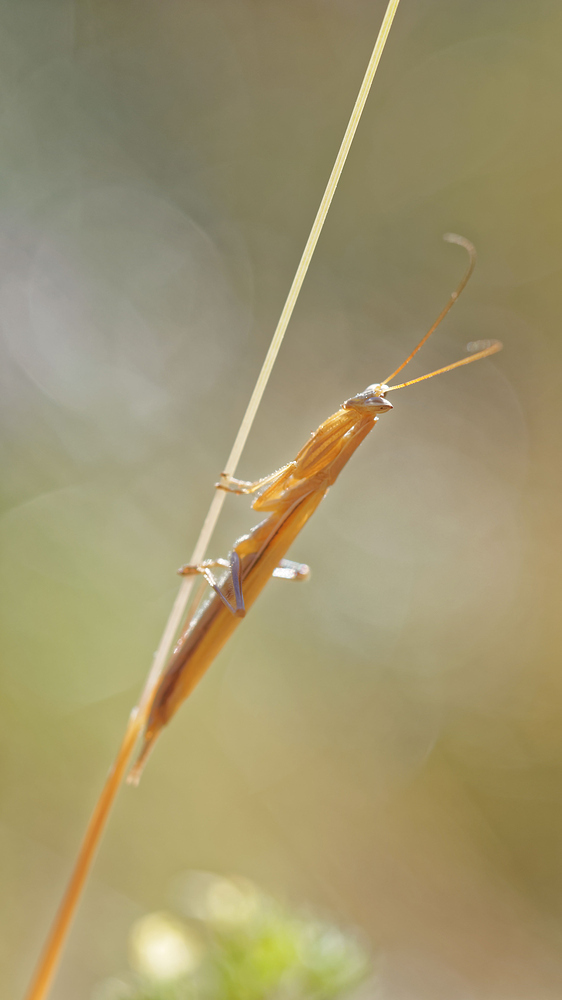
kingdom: Animalia
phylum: Arthropoda
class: Insecta
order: Mantodea
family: Amelidae
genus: Ameles
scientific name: Ameles picteti
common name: Pictet's dwarf mantis
